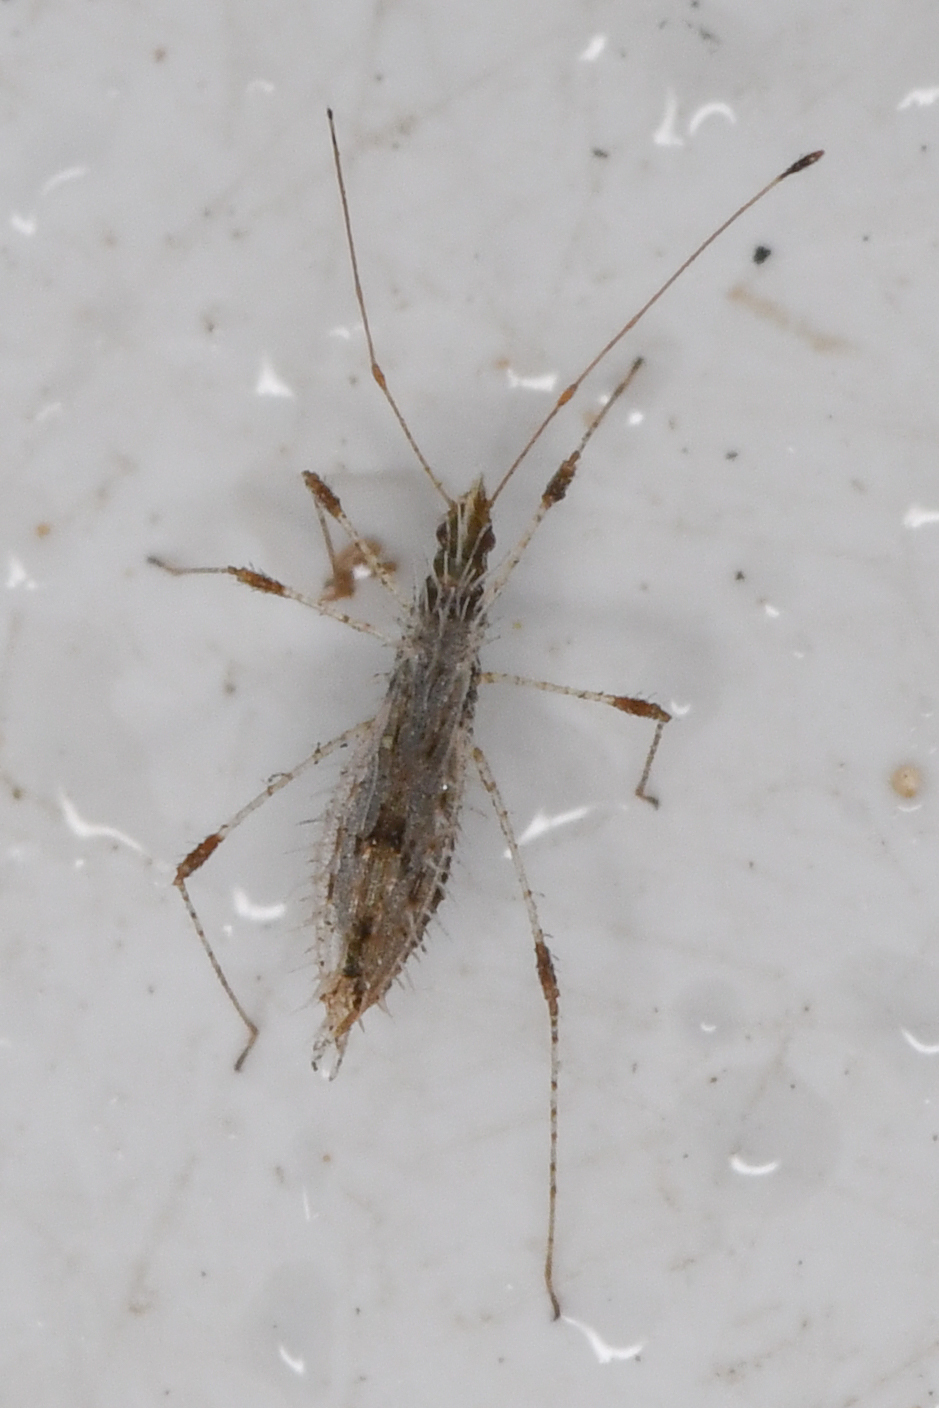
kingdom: Animalia
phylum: Arthropoda
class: Insecta
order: Hemiptera
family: Berytidae
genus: Hoplinus
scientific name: Hoplinus echinatus
